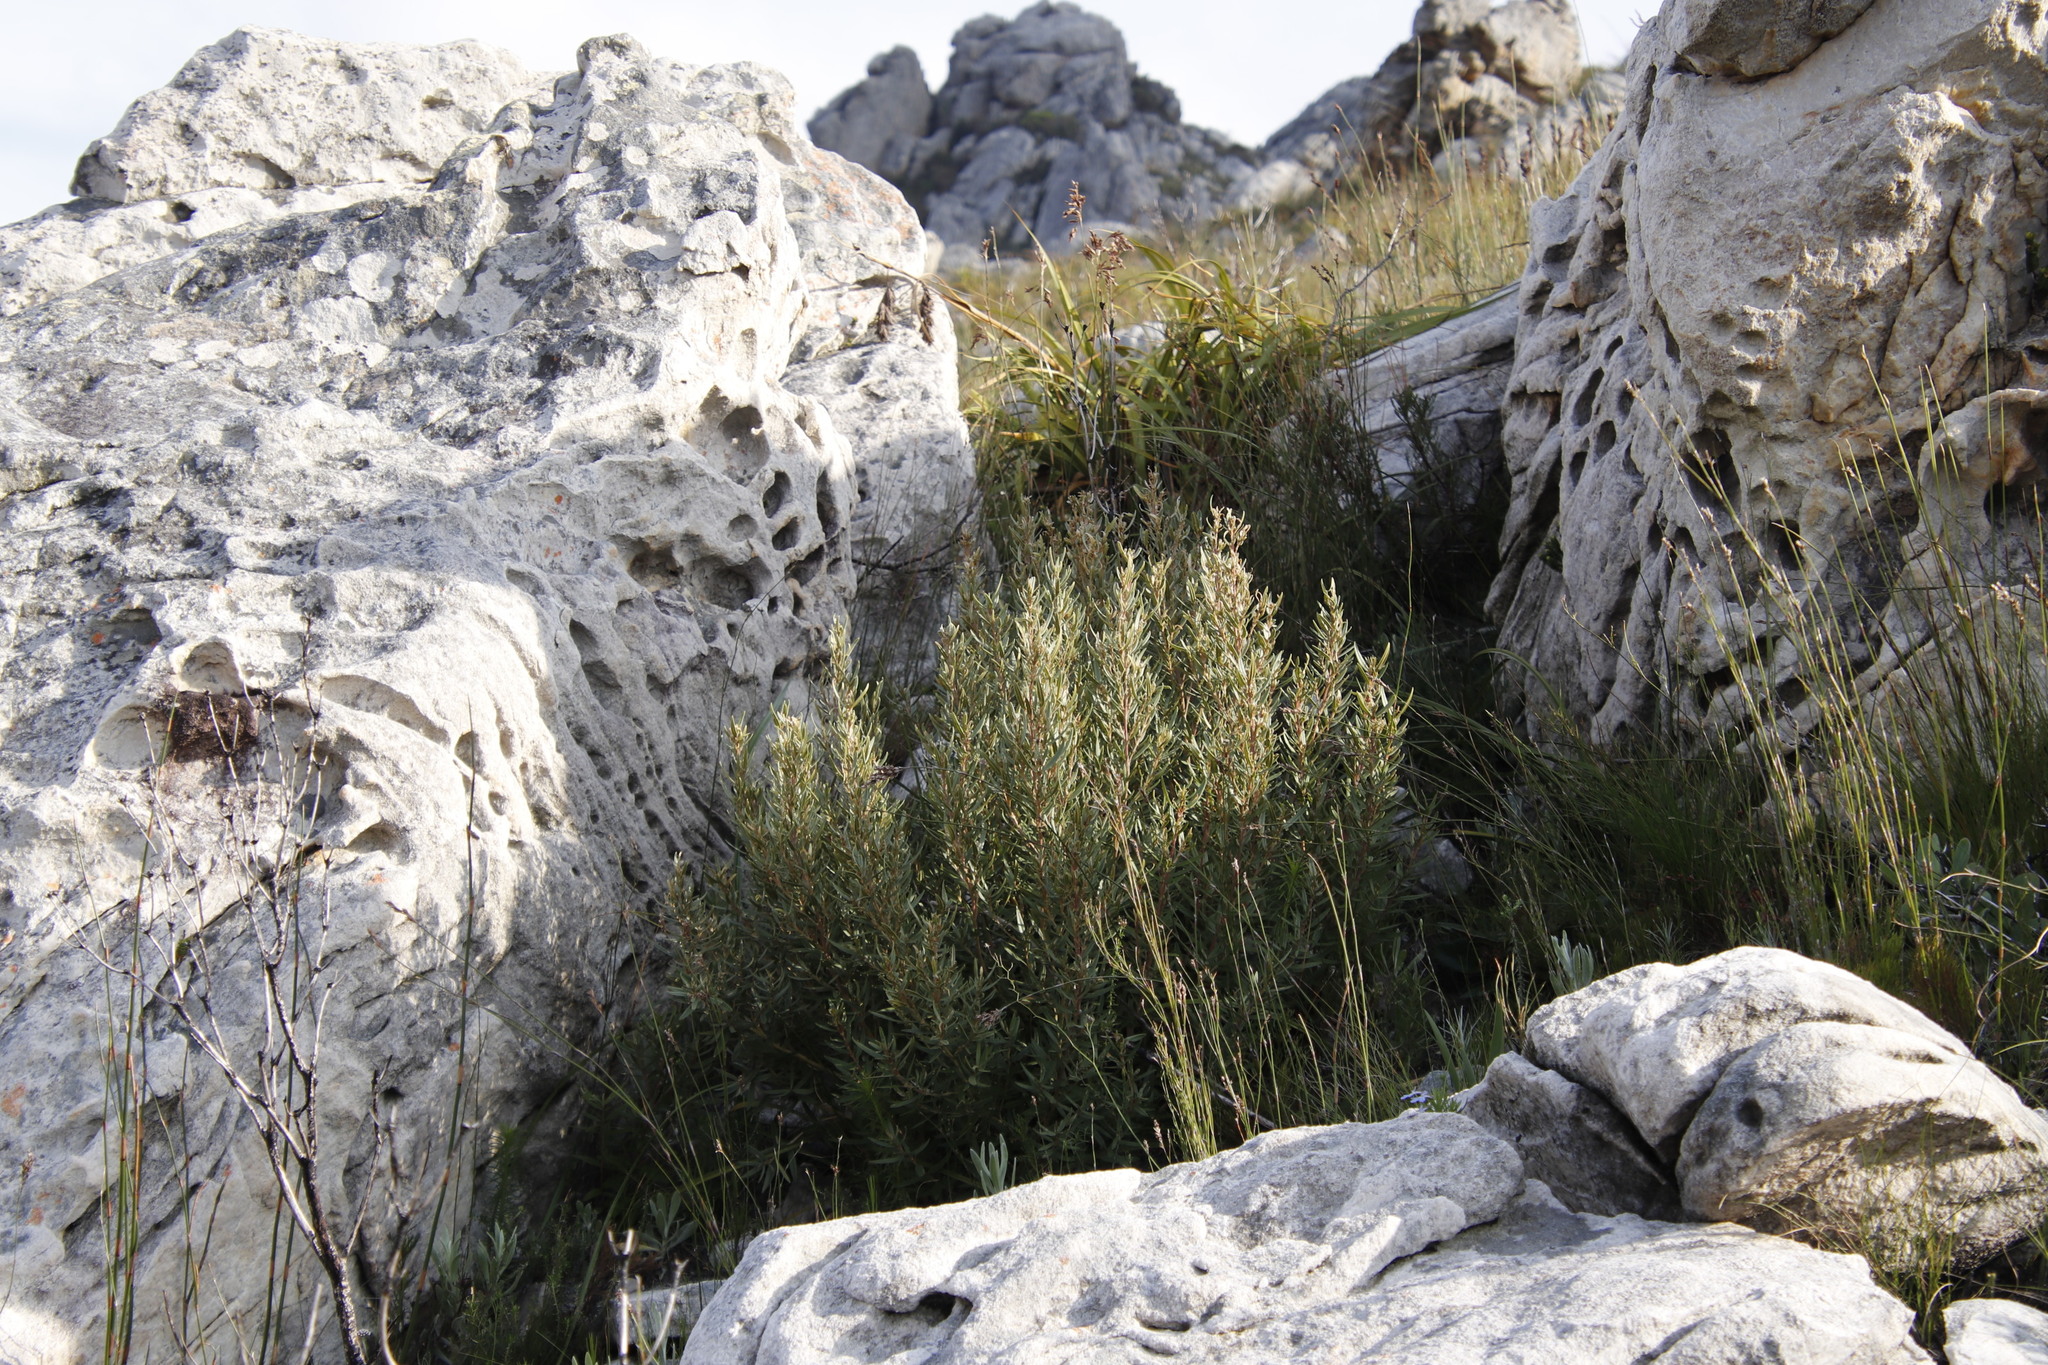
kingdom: Plantae
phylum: Tracheophyta
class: Magnoliopsida
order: Cornales
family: Grubbiaceae
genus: Grubbia
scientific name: Grubbia tomentosa
